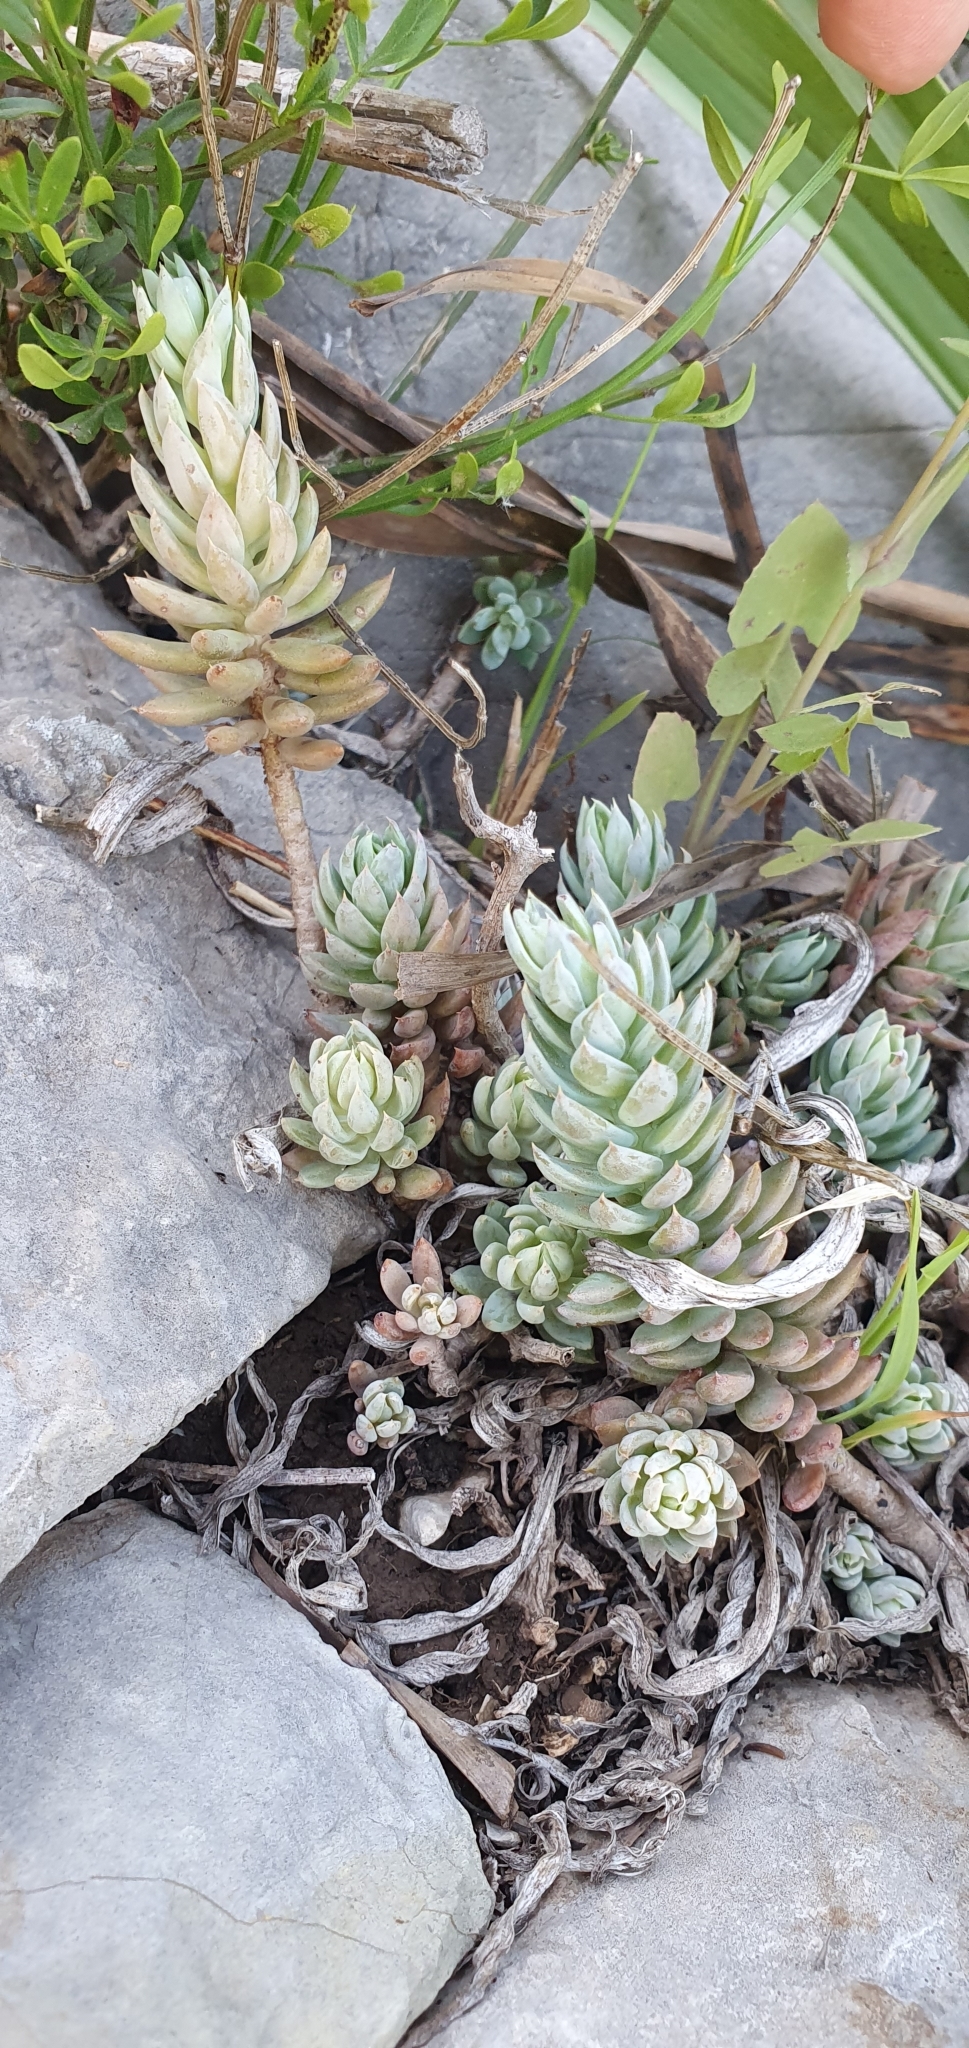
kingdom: Plantae
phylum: Tracheophyta
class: Magnoliopsida
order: Saxifragales
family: Crassulaceae
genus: Petrosedum
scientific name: Petrosedum sediforme
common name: Pale stonecrop
